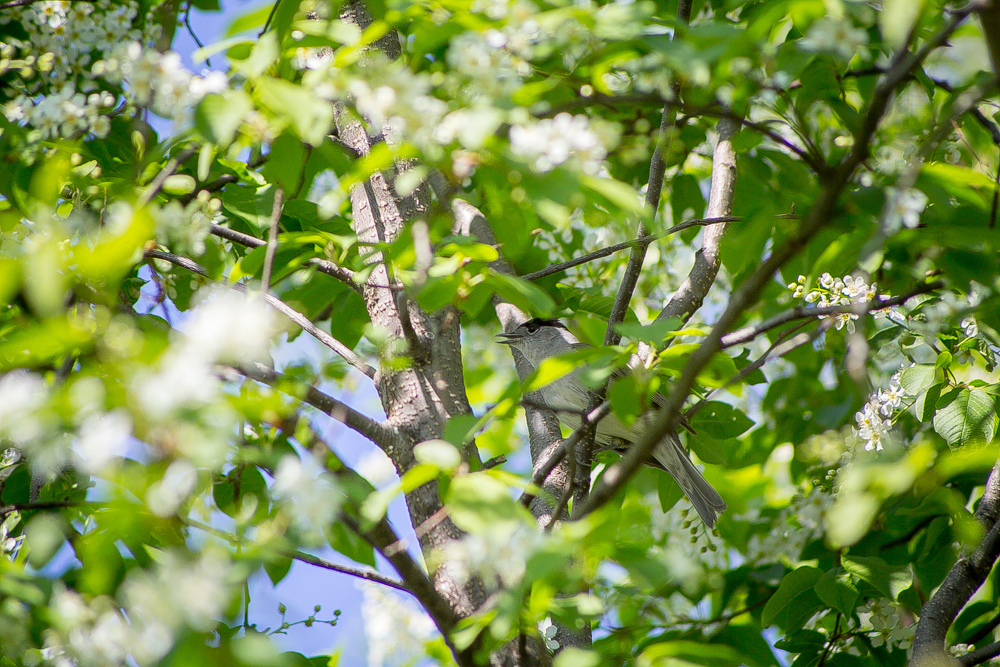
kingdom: Animalia
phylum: Chordata
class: Aves
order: Passeriformes
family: Sylviidae
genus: Sylvia
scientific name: Sylvia atricapilla
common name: Eurasian blackcap
